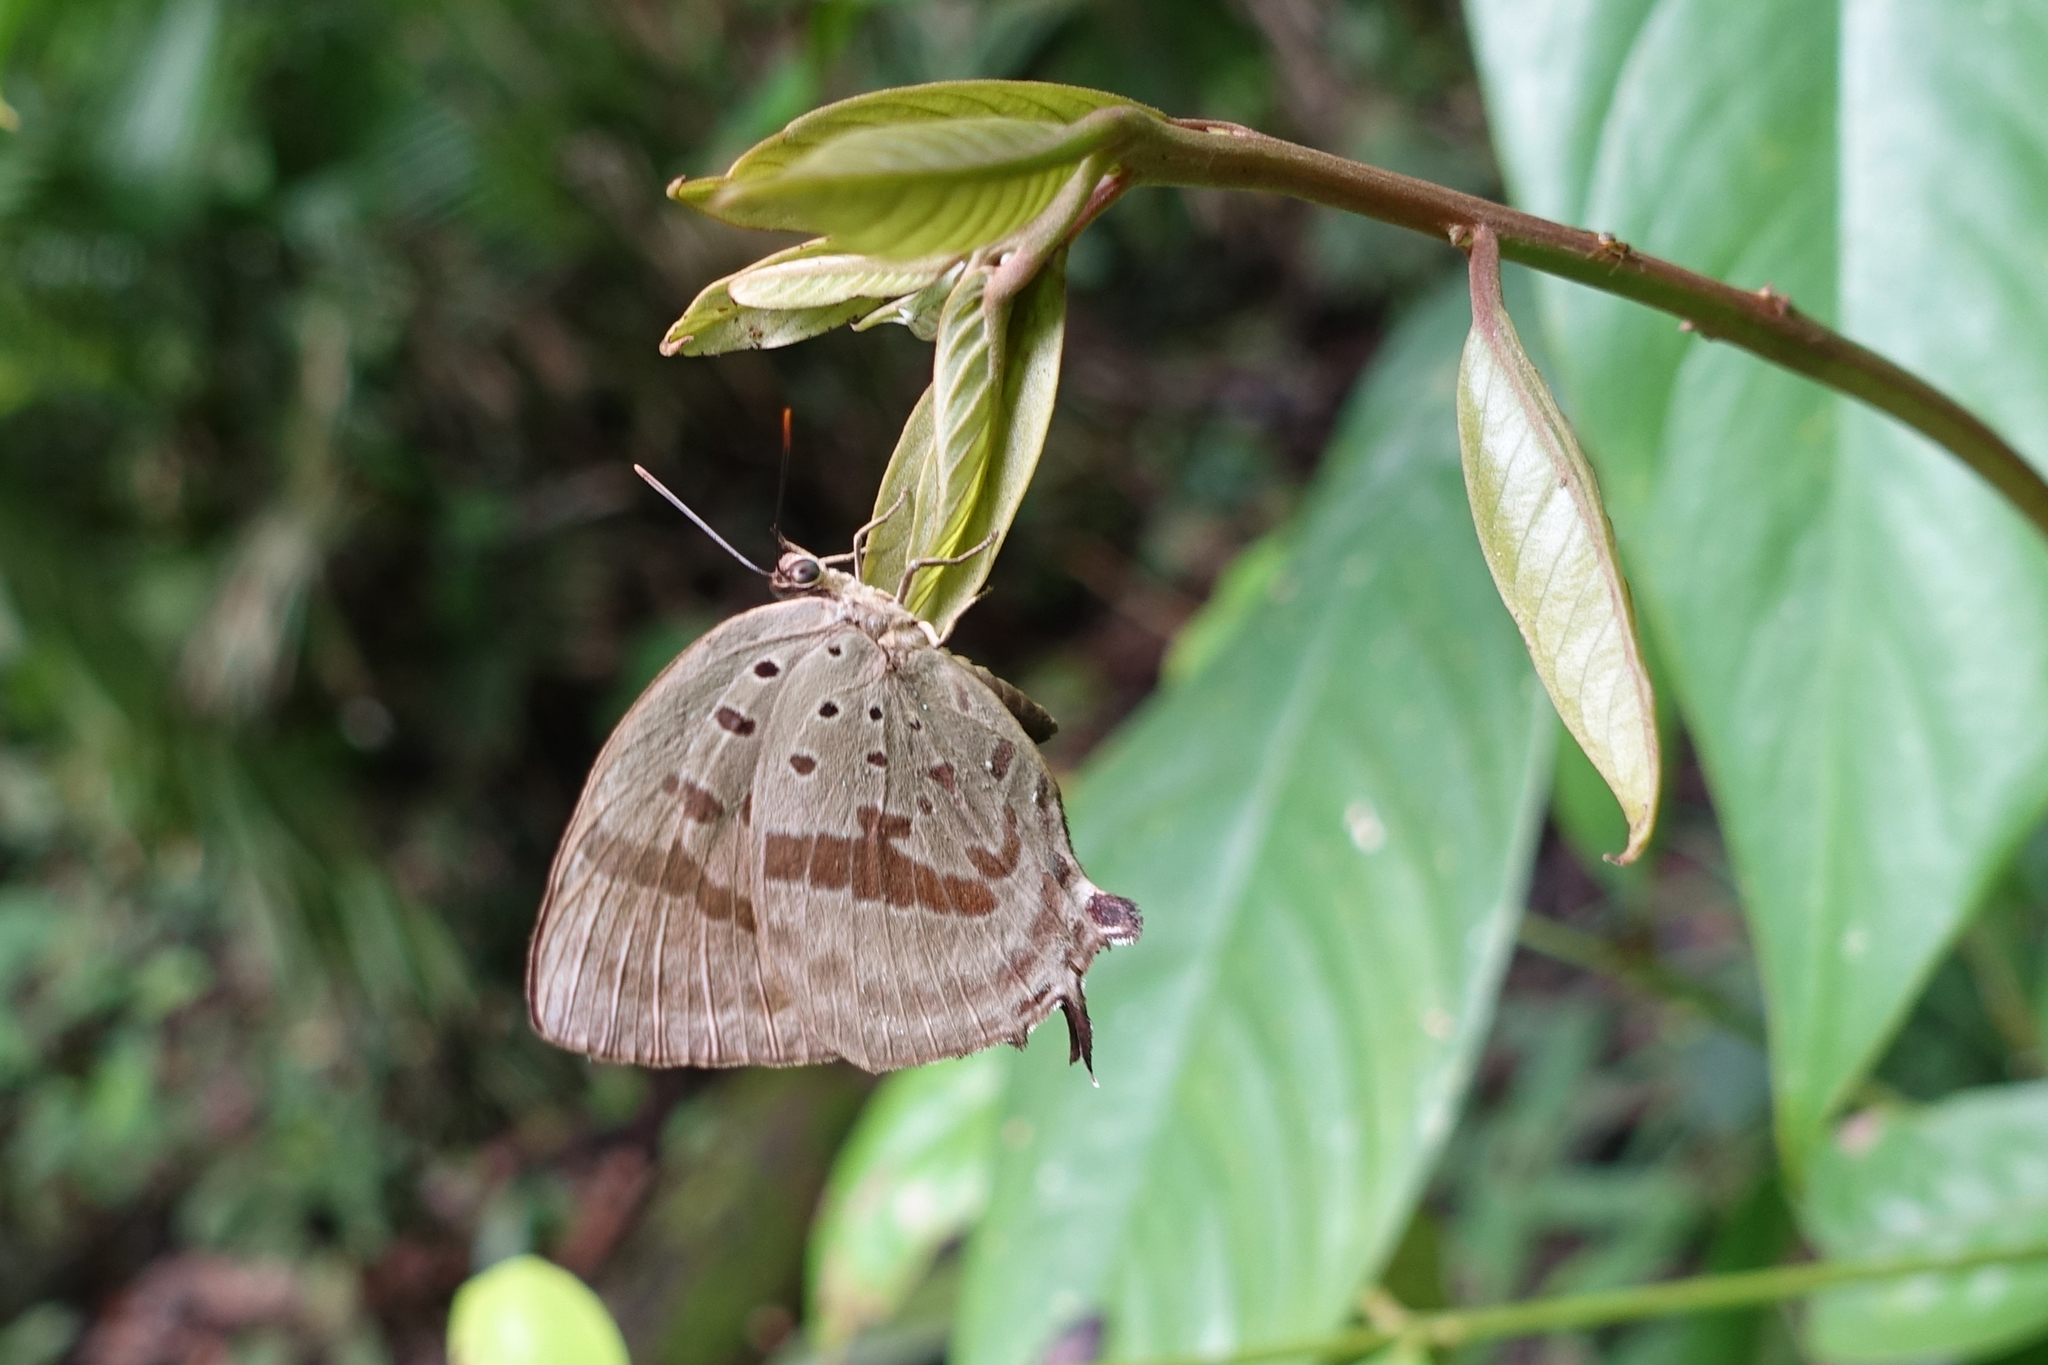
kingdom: Animalia
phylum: Arthropoda
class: Insecta
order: Lepidoptera
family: Lycaenidae
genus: Arhopala
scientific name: Arhopala hercules
